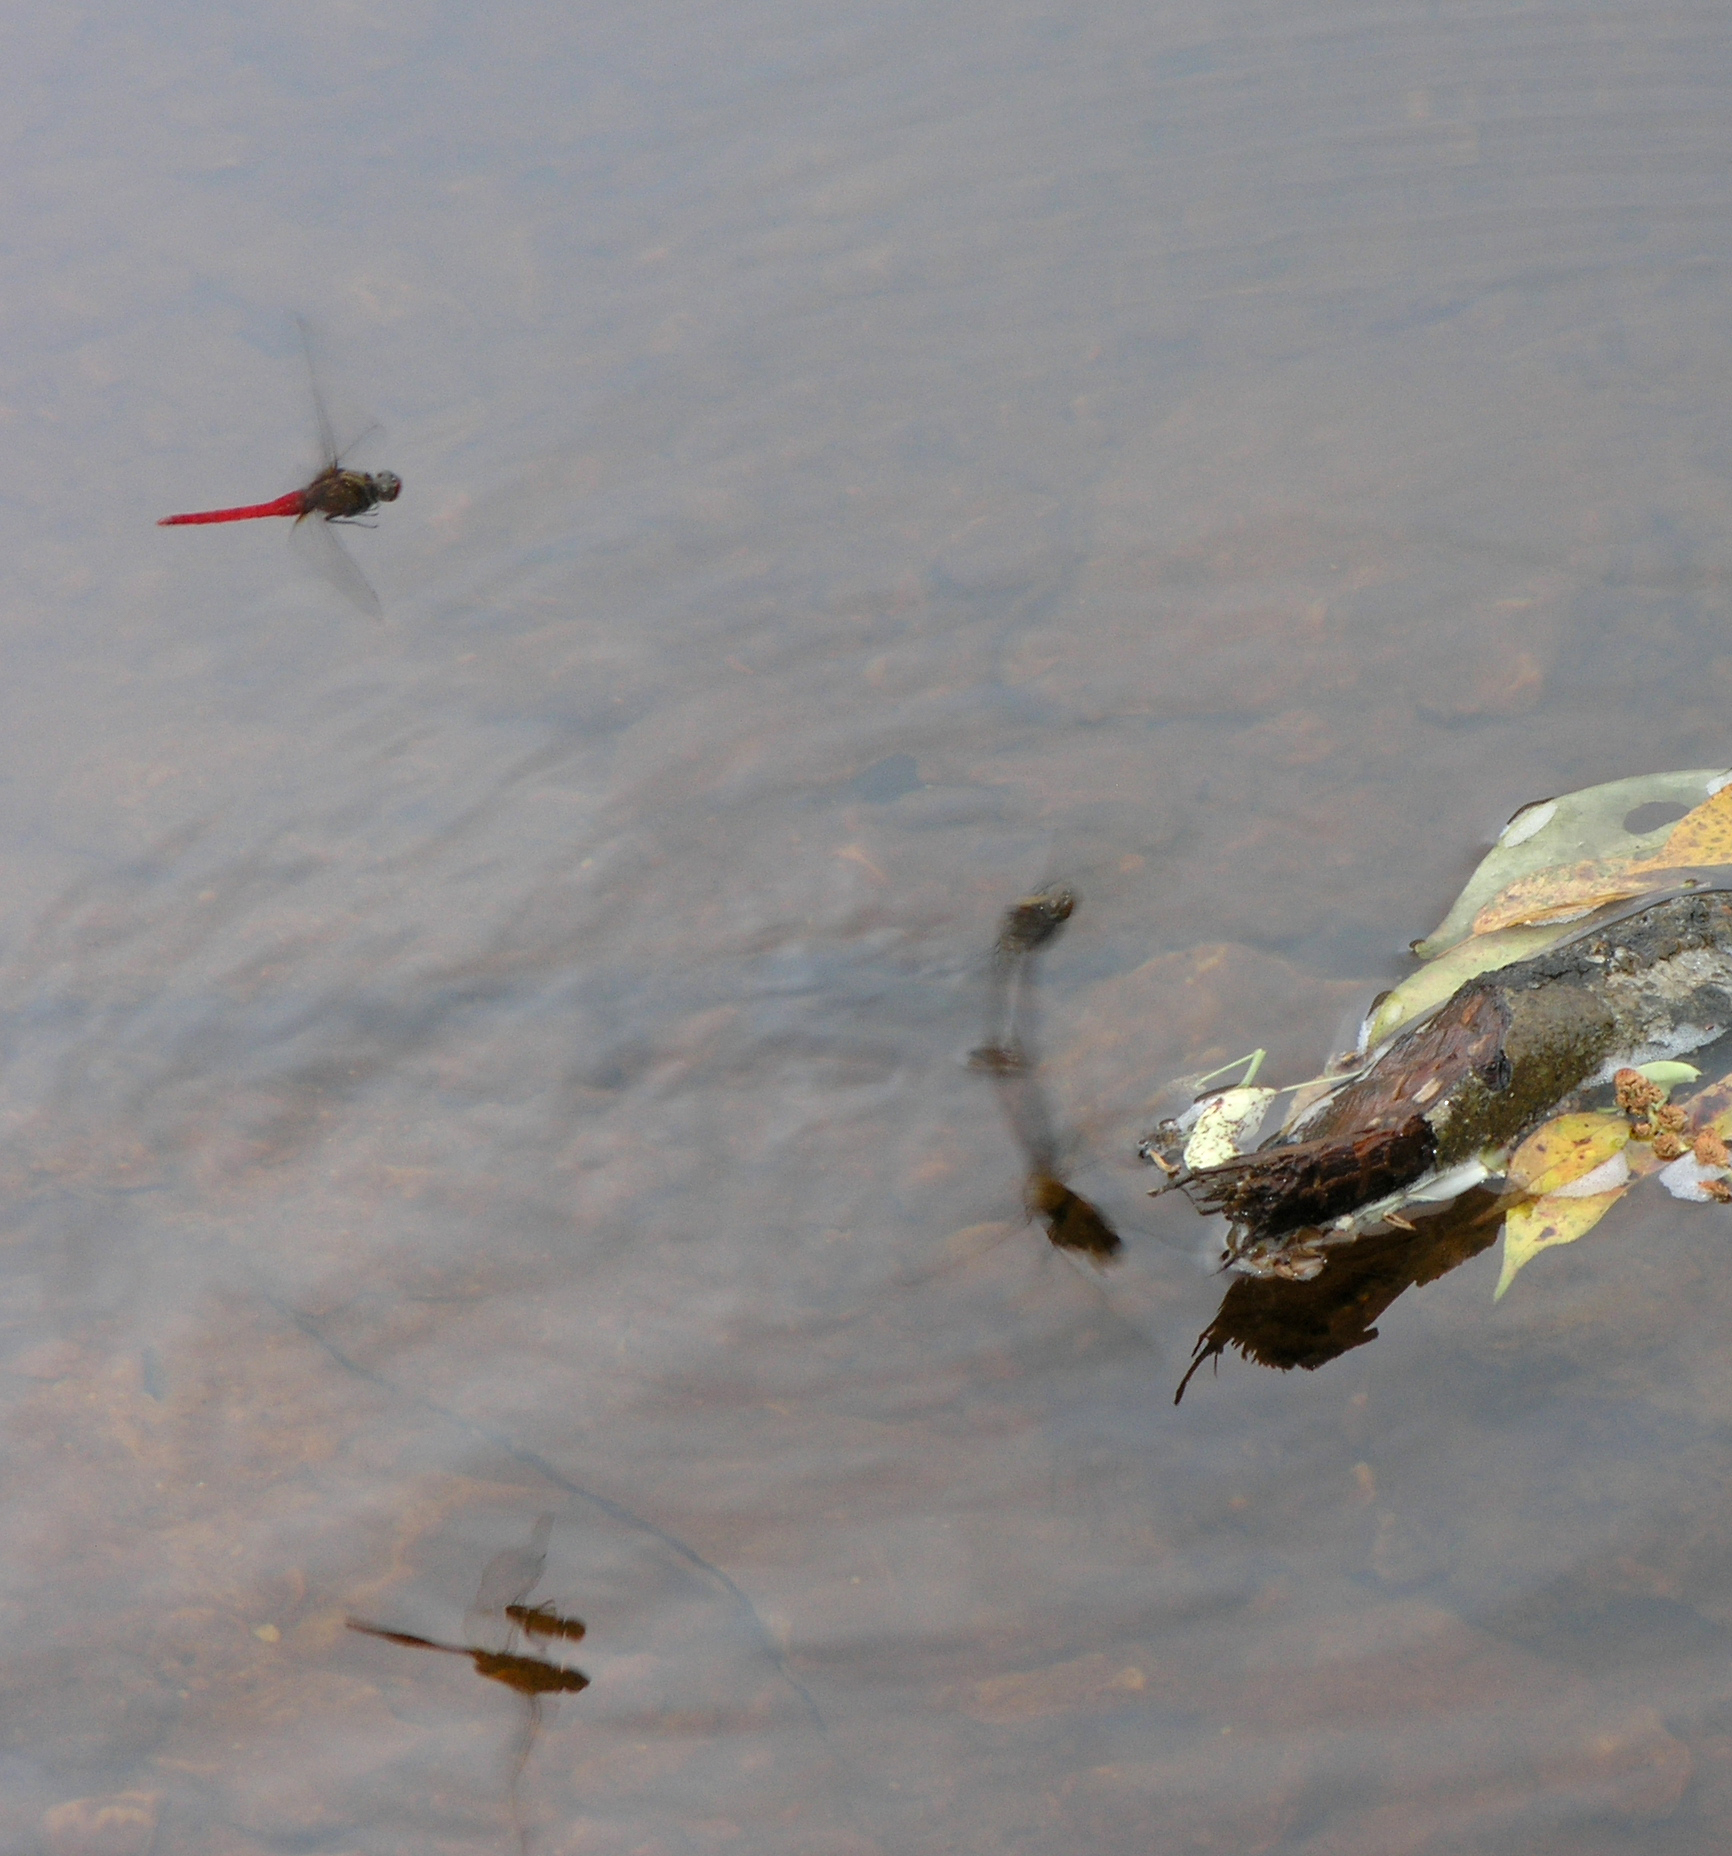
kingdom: Animalia
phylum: Arthropoda
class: Insecta
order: Odonata
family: Libellulidae
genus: Orthetrum
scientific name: Orthetrum chrysis
